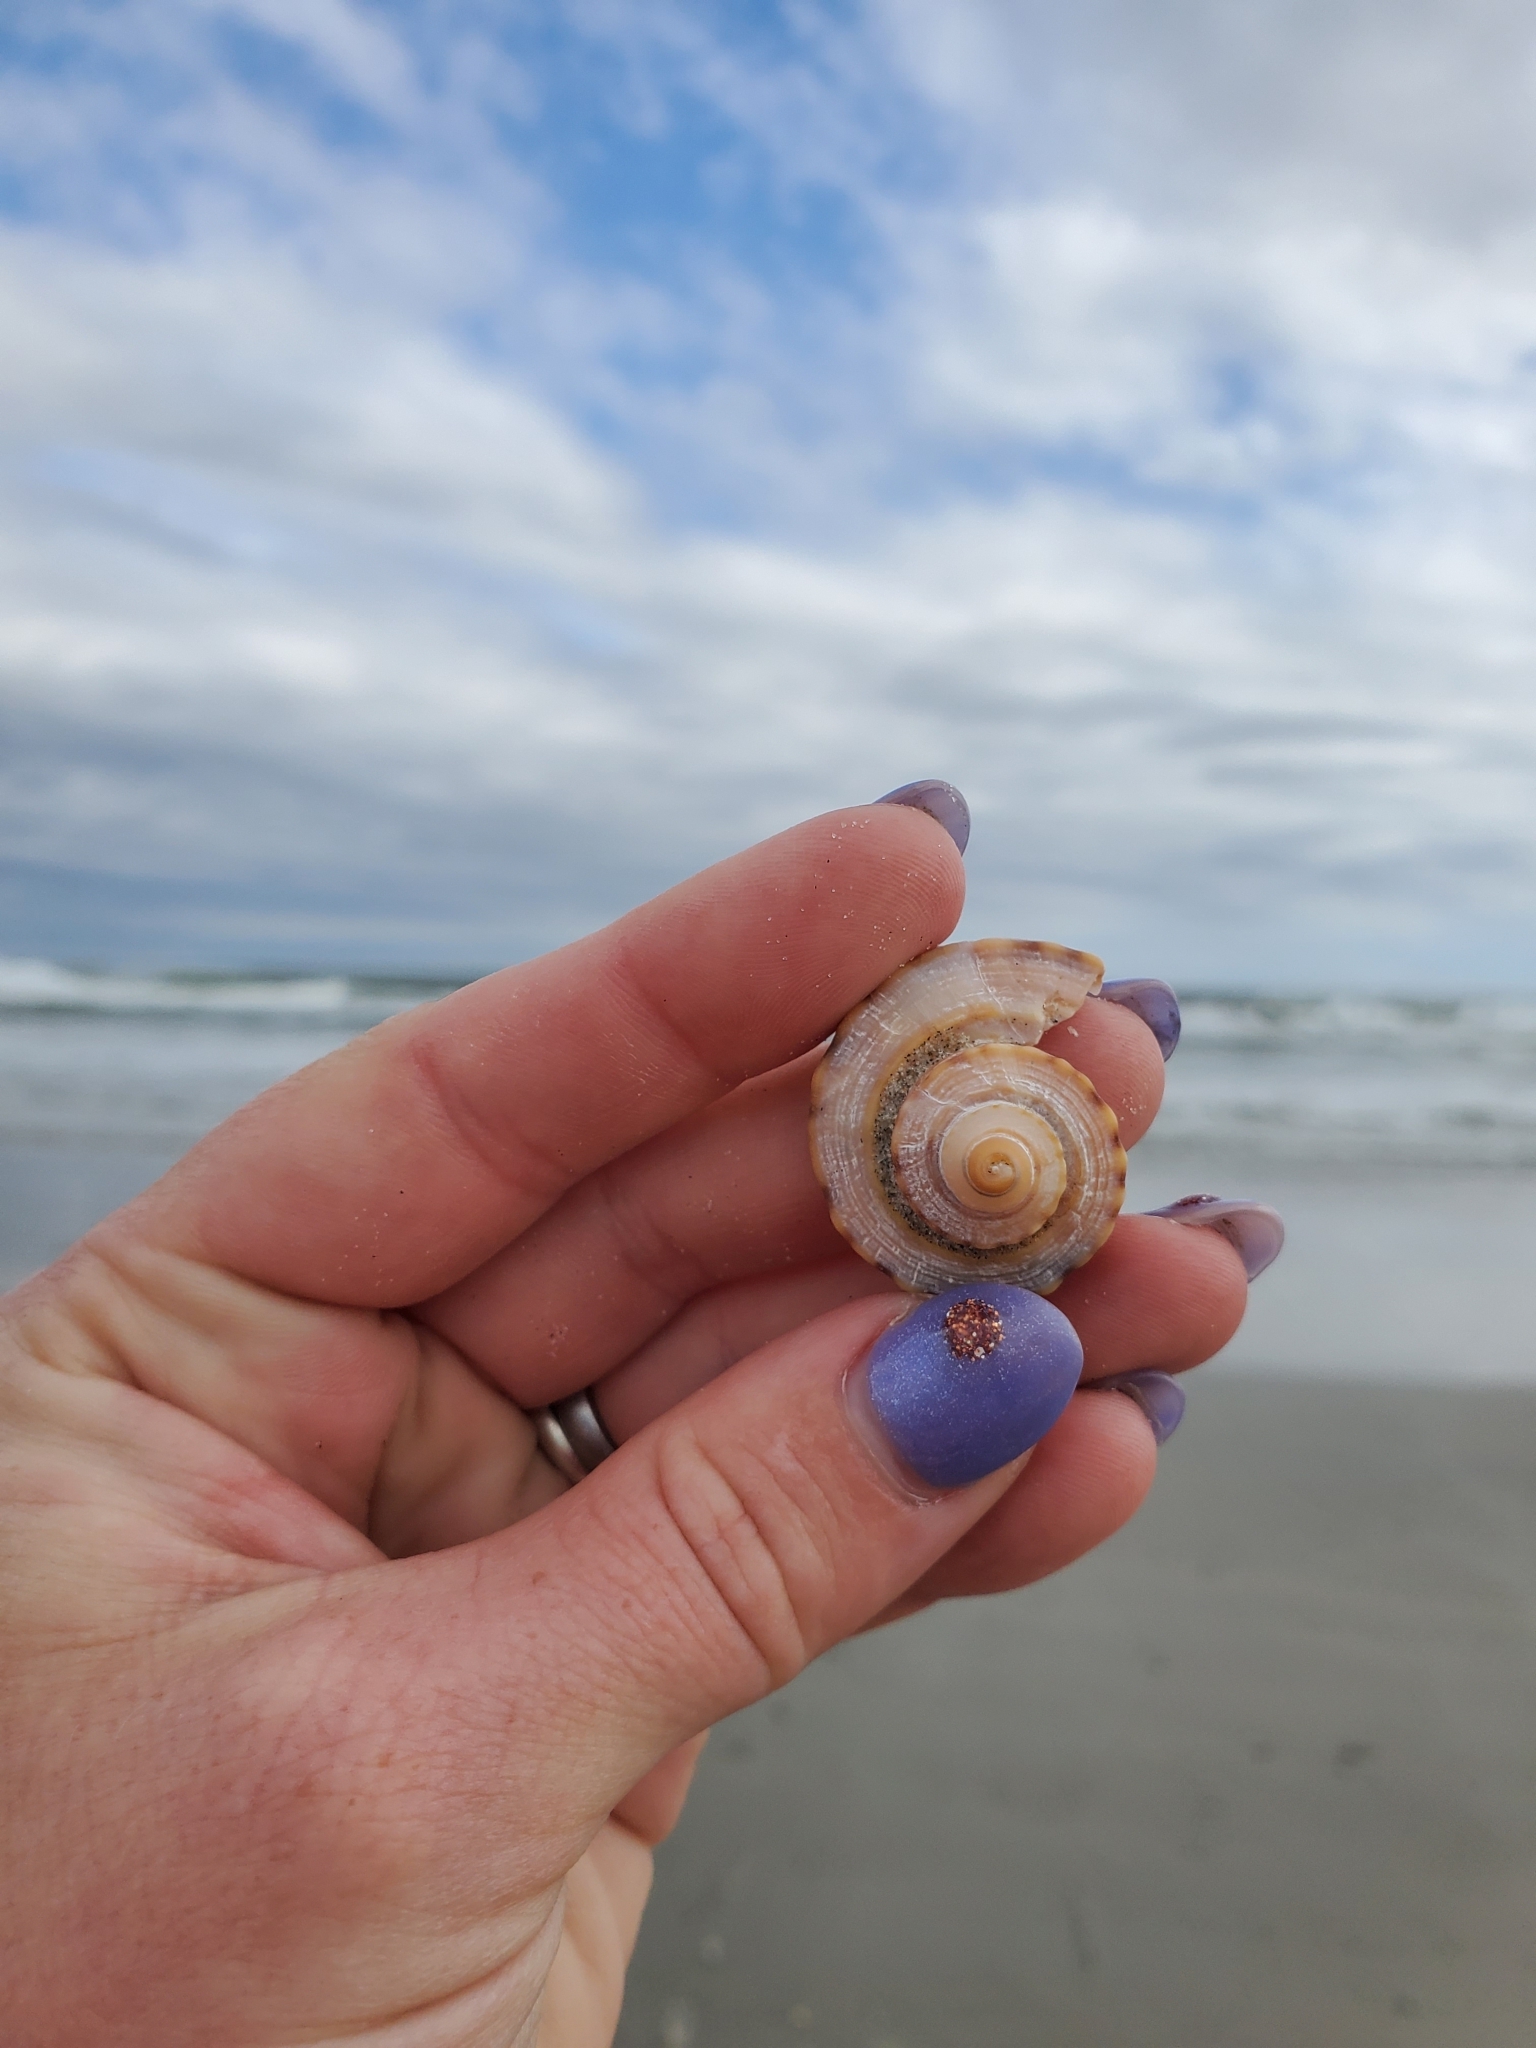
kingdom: Animalia
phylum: Mollusca
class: Gastropoda
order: Neogastropoda
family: Busyconidae
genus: Busycotypus
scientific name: Busycotypus canaliculatus
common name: Channeled whelk
